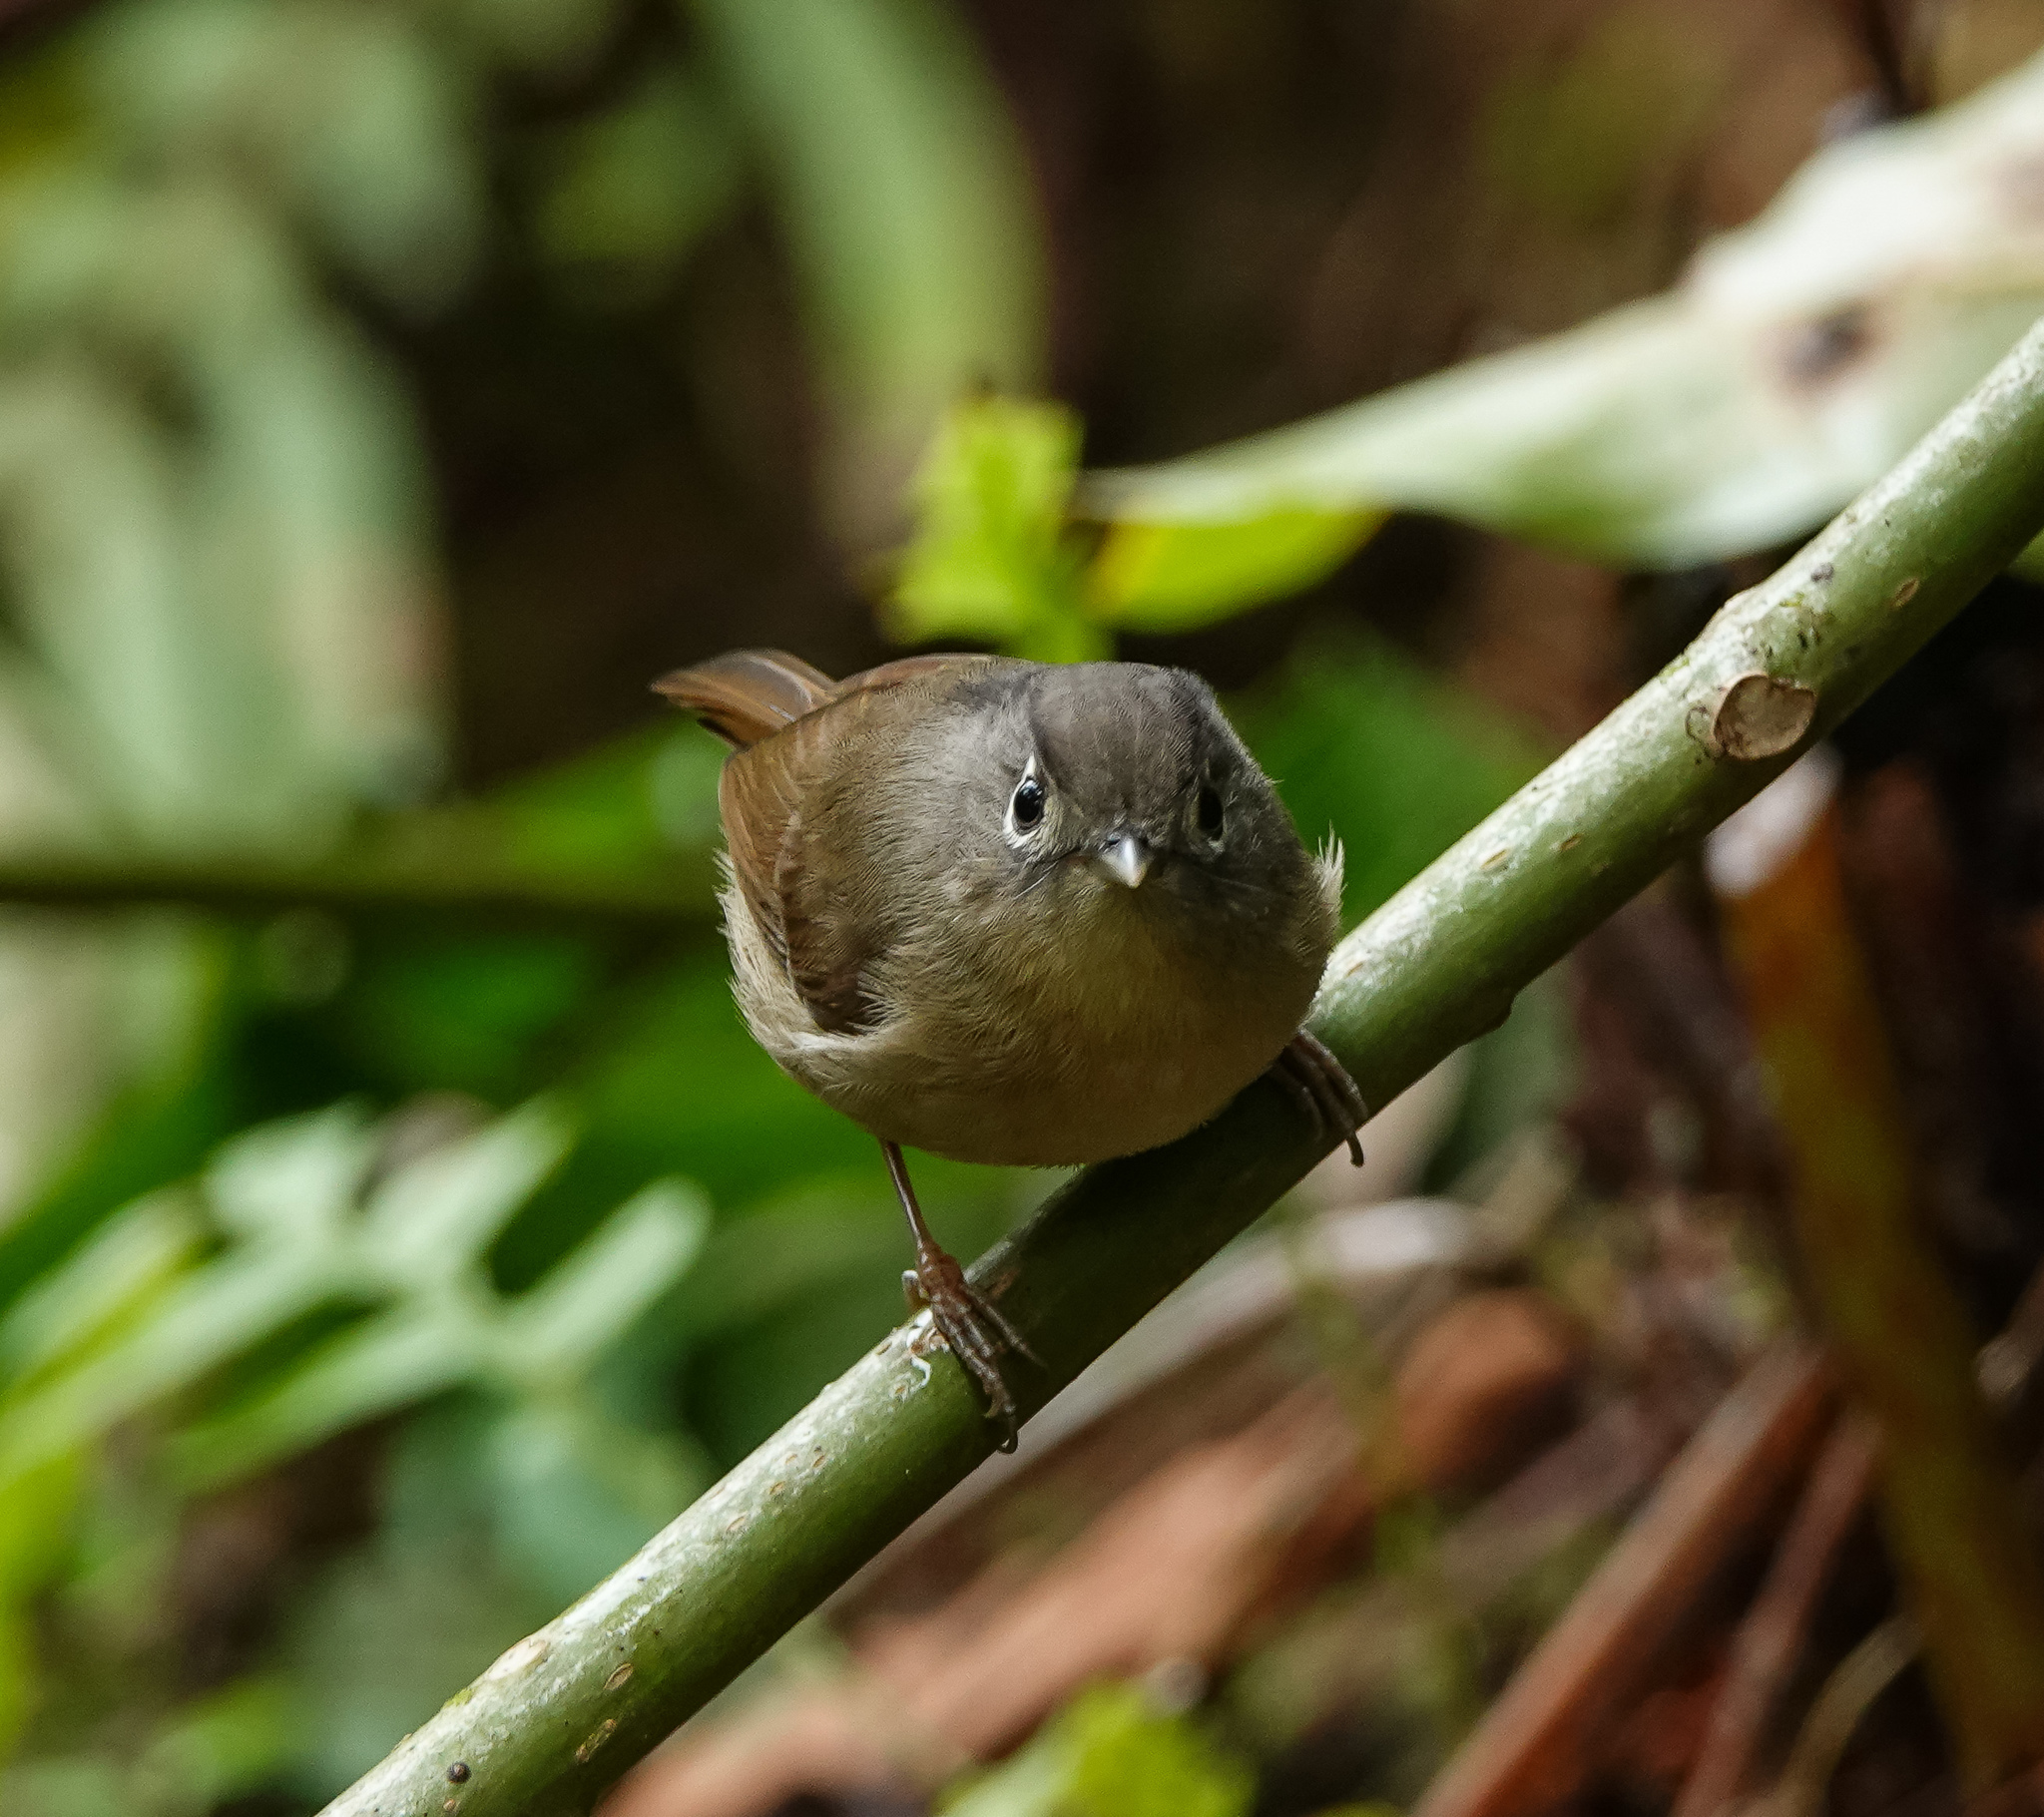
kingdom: Animalia
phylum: Chordata
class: Aves
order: Passeriformes
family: Pellorneidae
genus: Alcippe
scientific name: Alcippe nipalensis
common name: Nepal fulvetta
